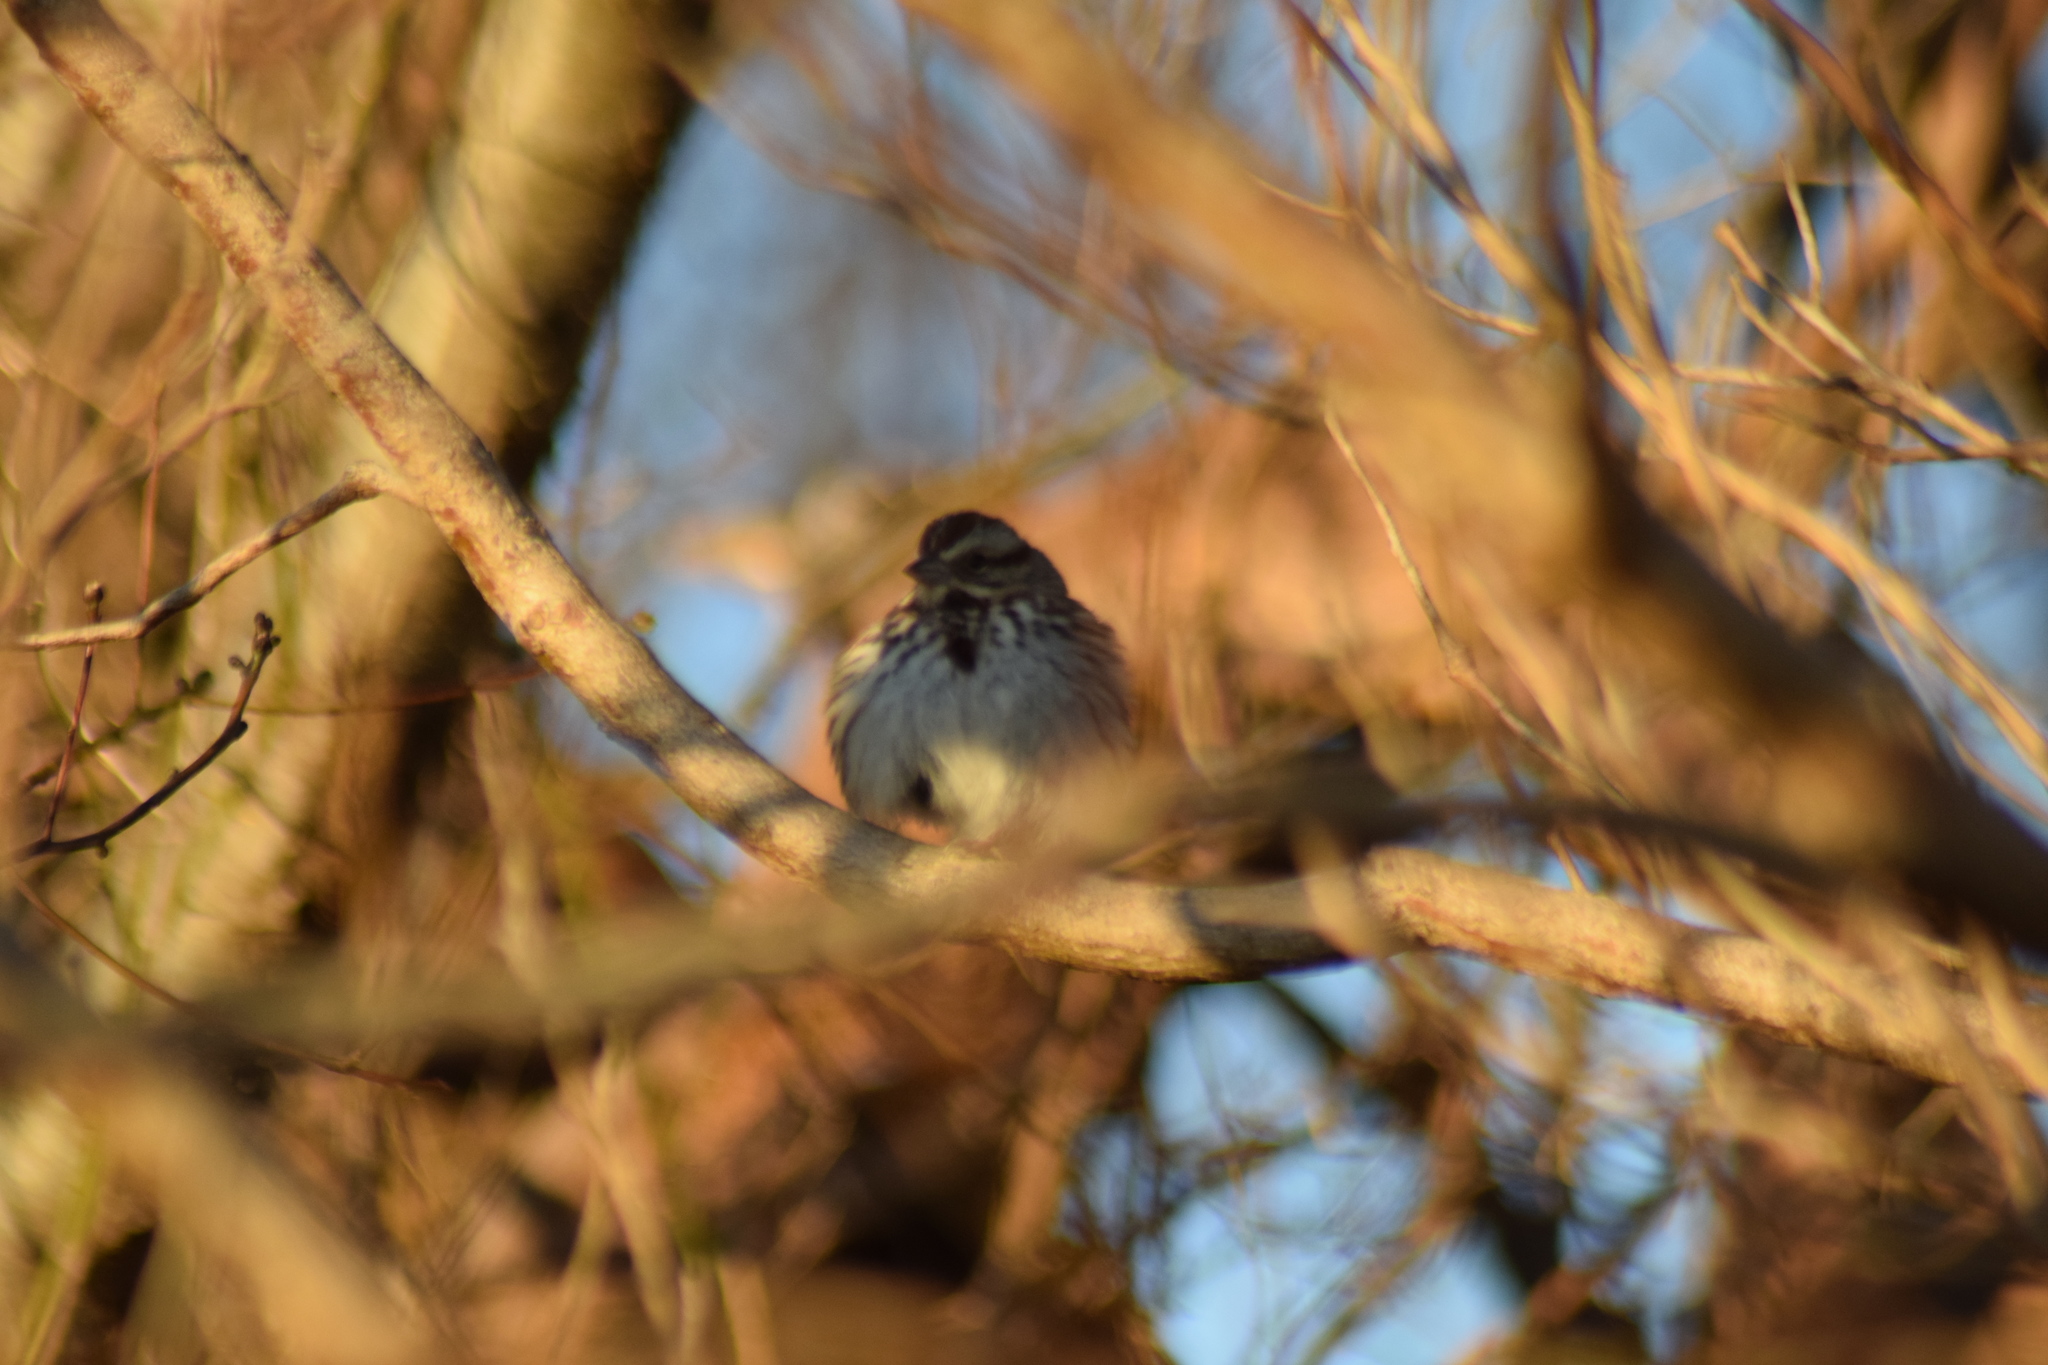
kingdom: Animalia
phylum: Chordata
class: Aves
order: Passeriformes
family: Passerellidae
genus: Melospiza
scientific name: Melospiza melodia
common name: Song sparrow
